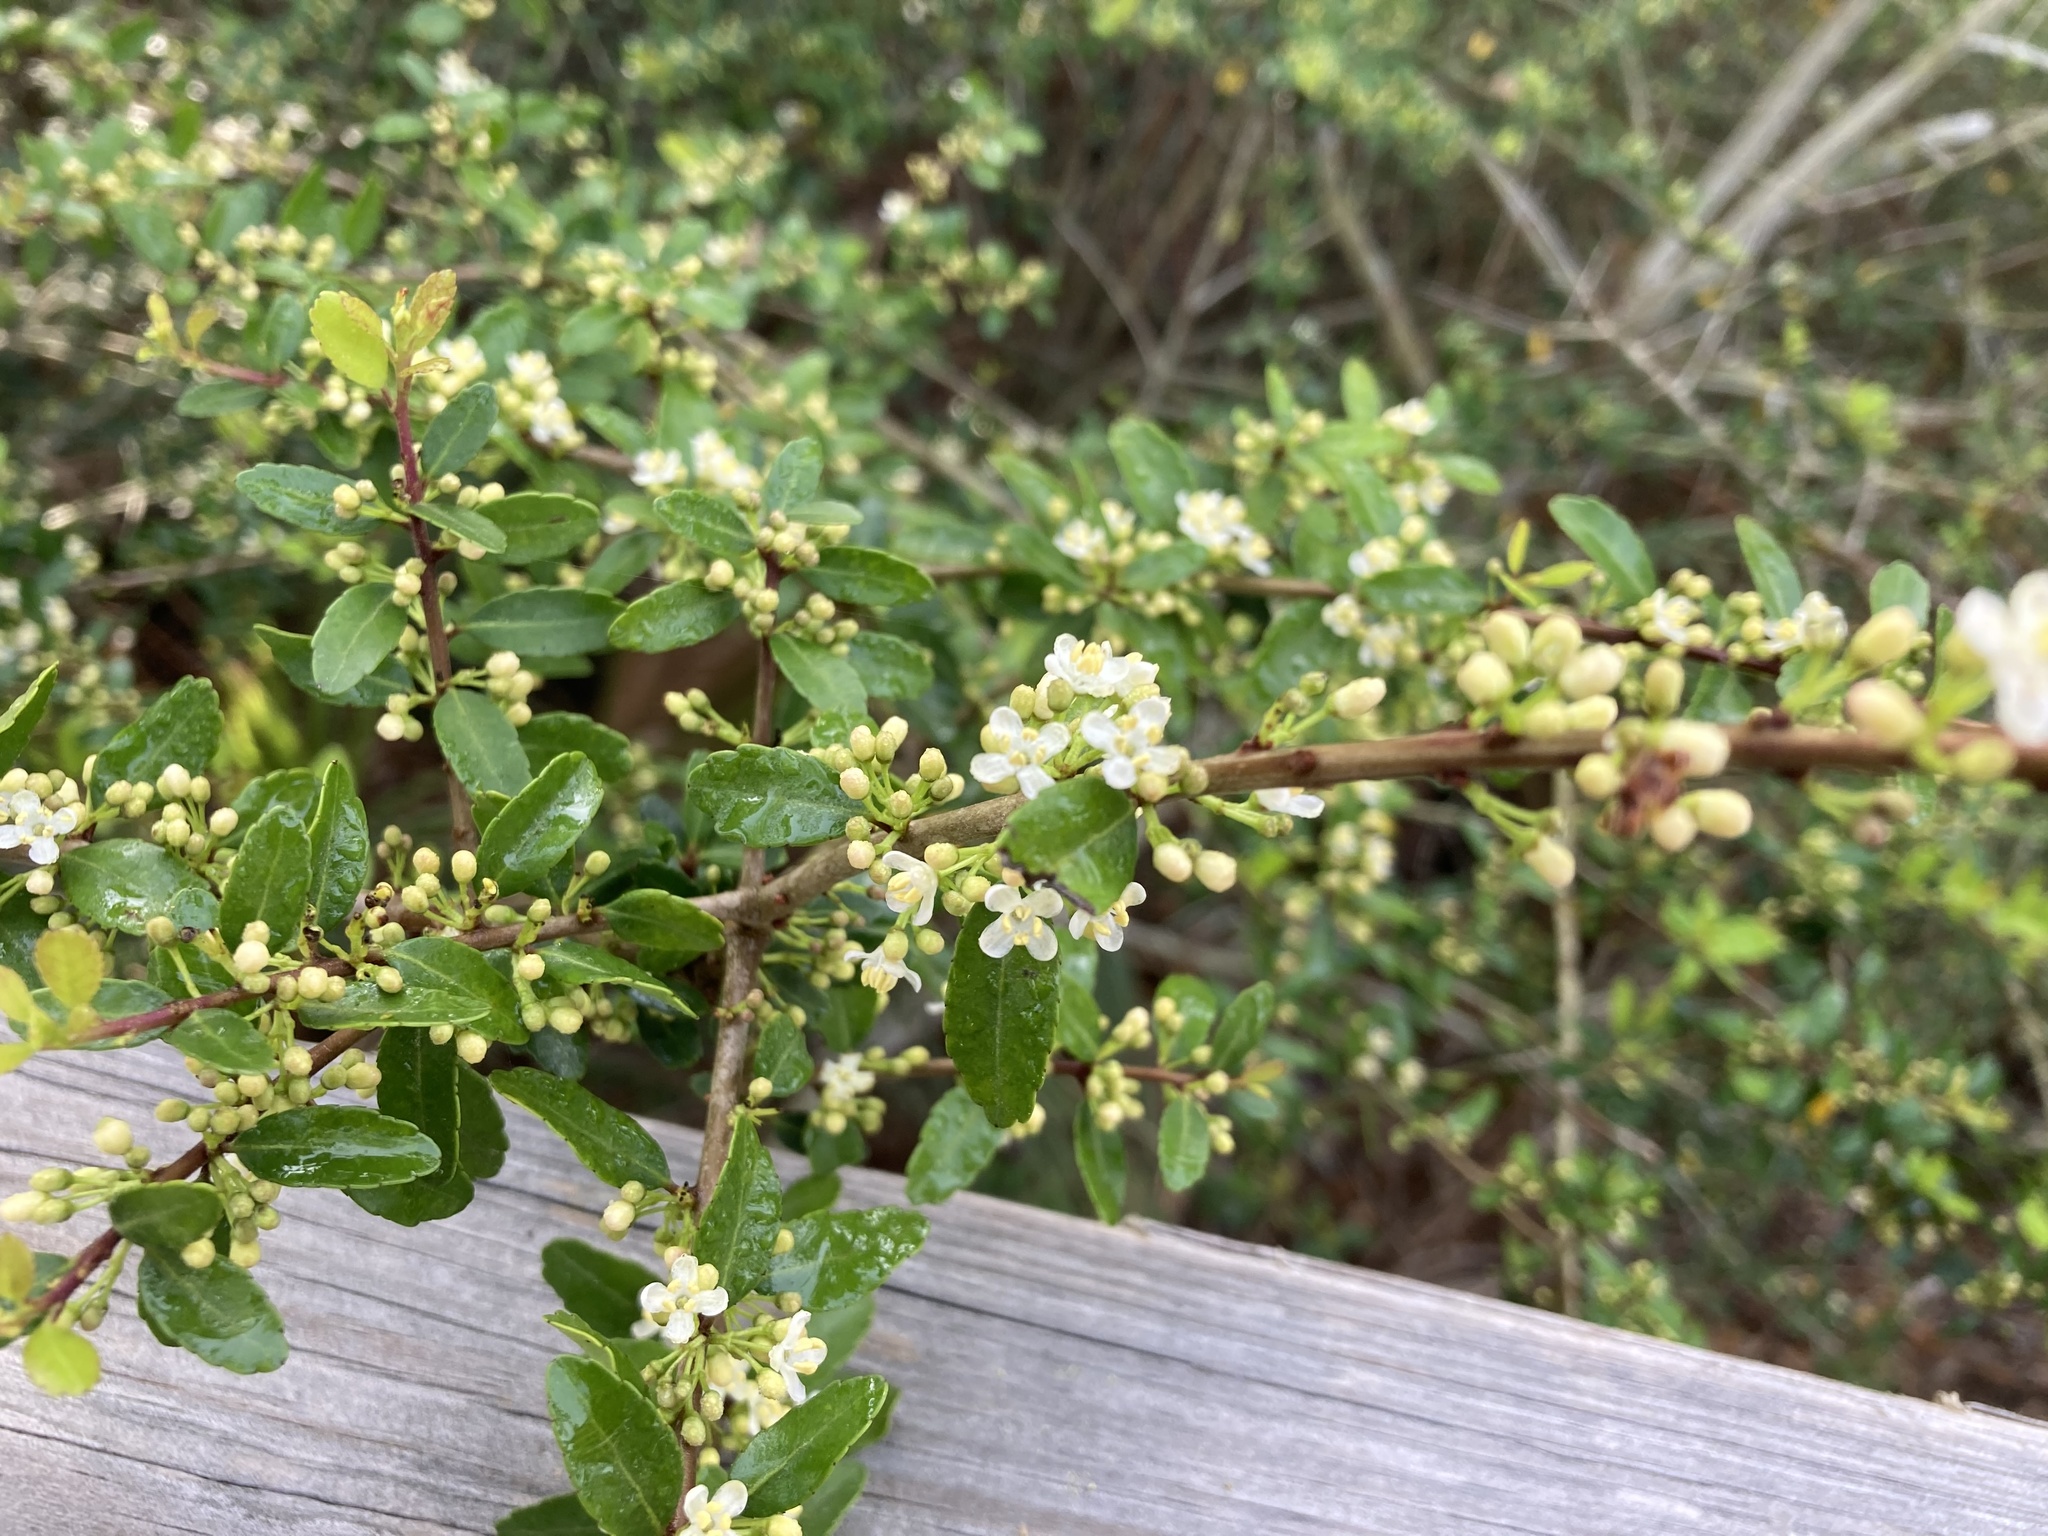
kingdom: Plantae
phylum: Tracheophyta
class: Magnoliopsida
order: Aquifoliales
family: Aquifoliaceae
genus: Ilex
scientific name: Ilex vomitoria
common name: Yaupon holly
